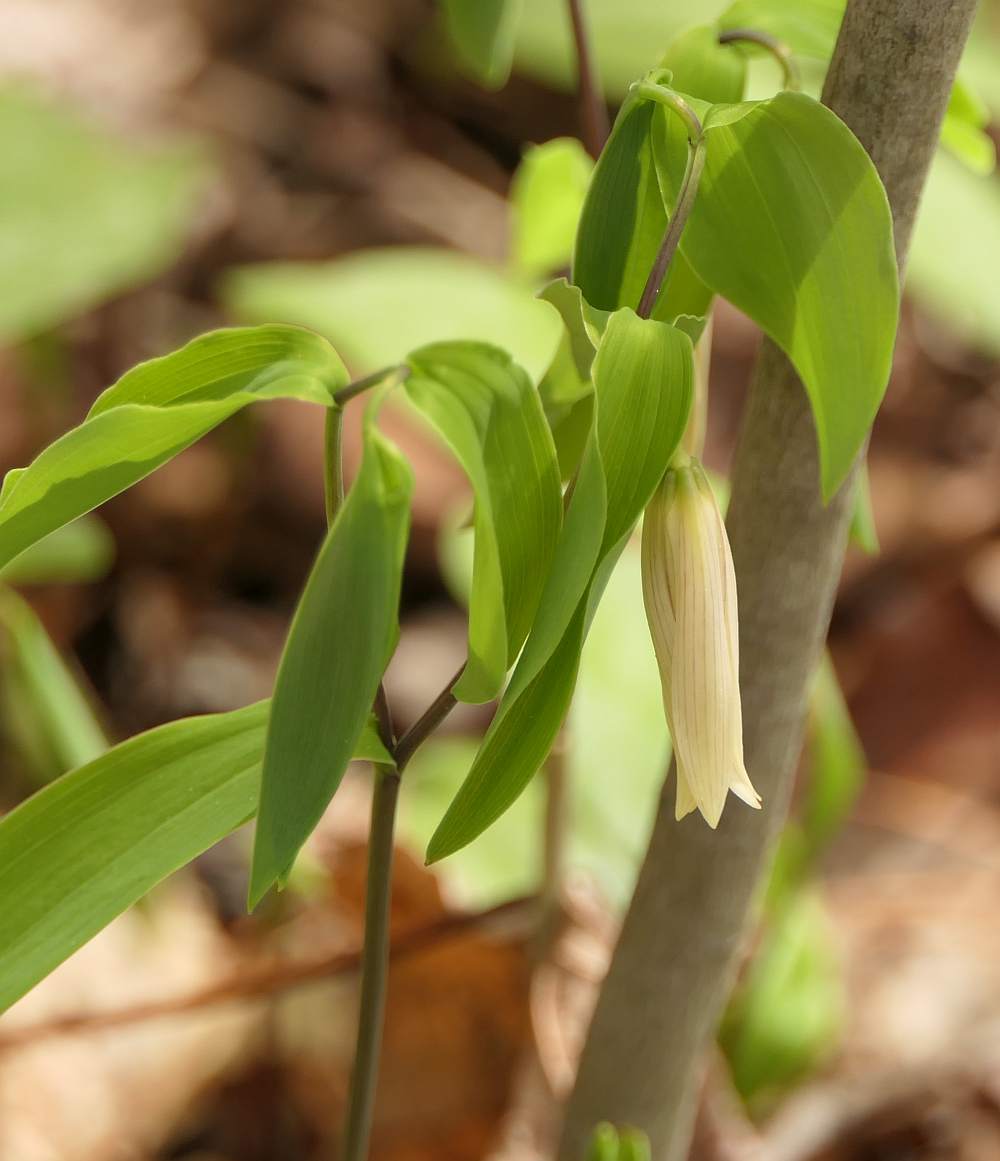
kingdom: Plantae
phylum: Tracheophyta
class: Liliopsida
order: Liliales
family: Colchicaceae
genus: Uvularia
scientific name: Uvularia sessilifolia
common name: Straw-lily
